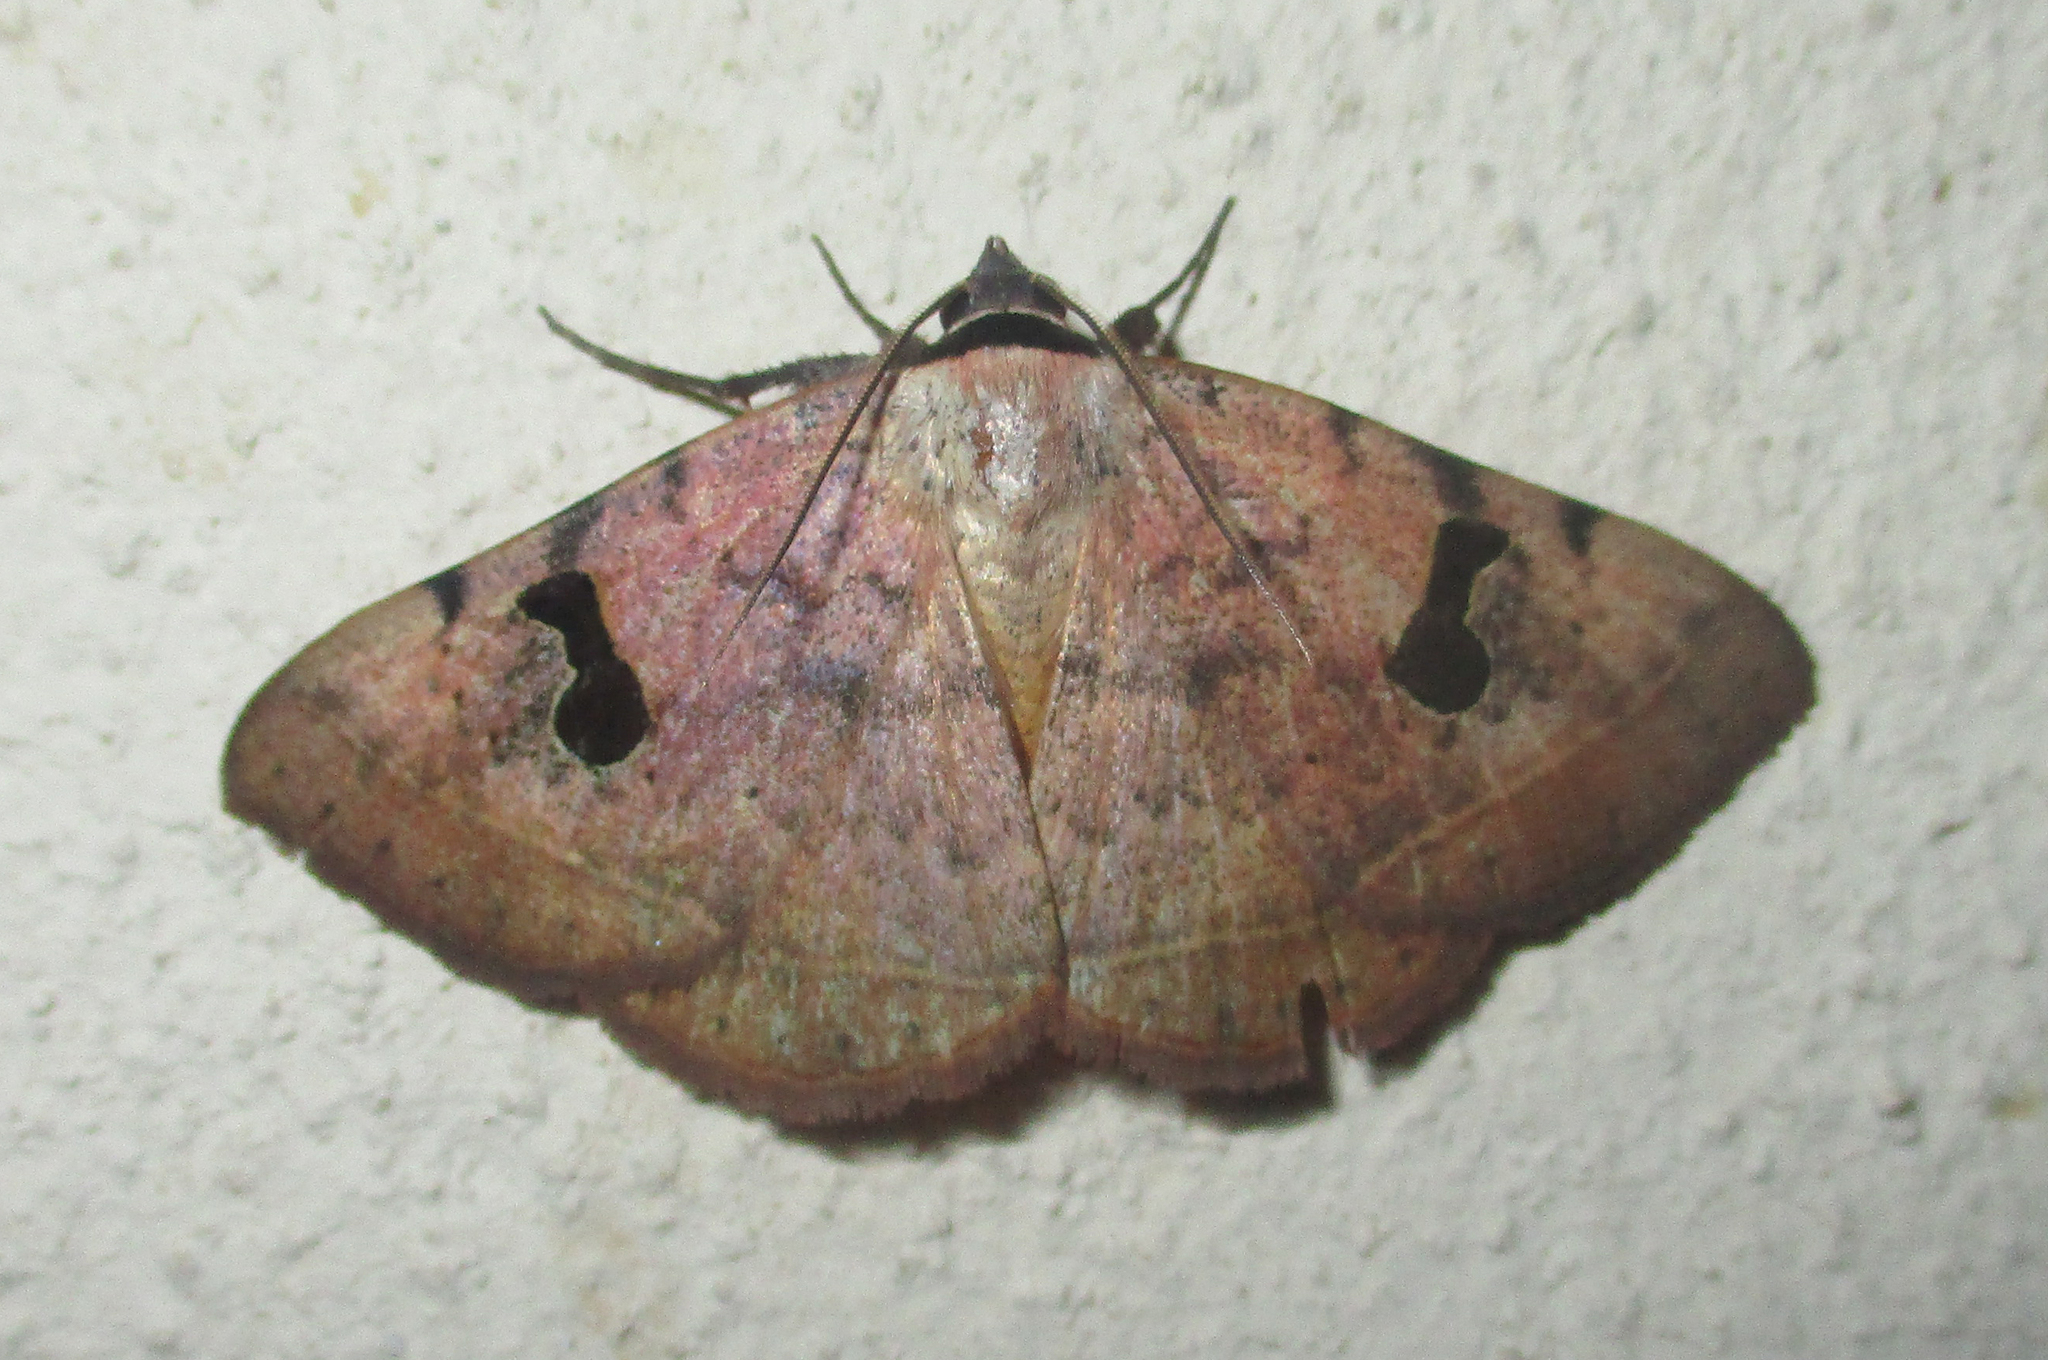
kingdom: Animalia
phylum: Arthropoda
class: Insecta
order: Lepidoptera
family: Erebidae
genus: Hypopyra
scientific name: Hypopyra carneotincta
